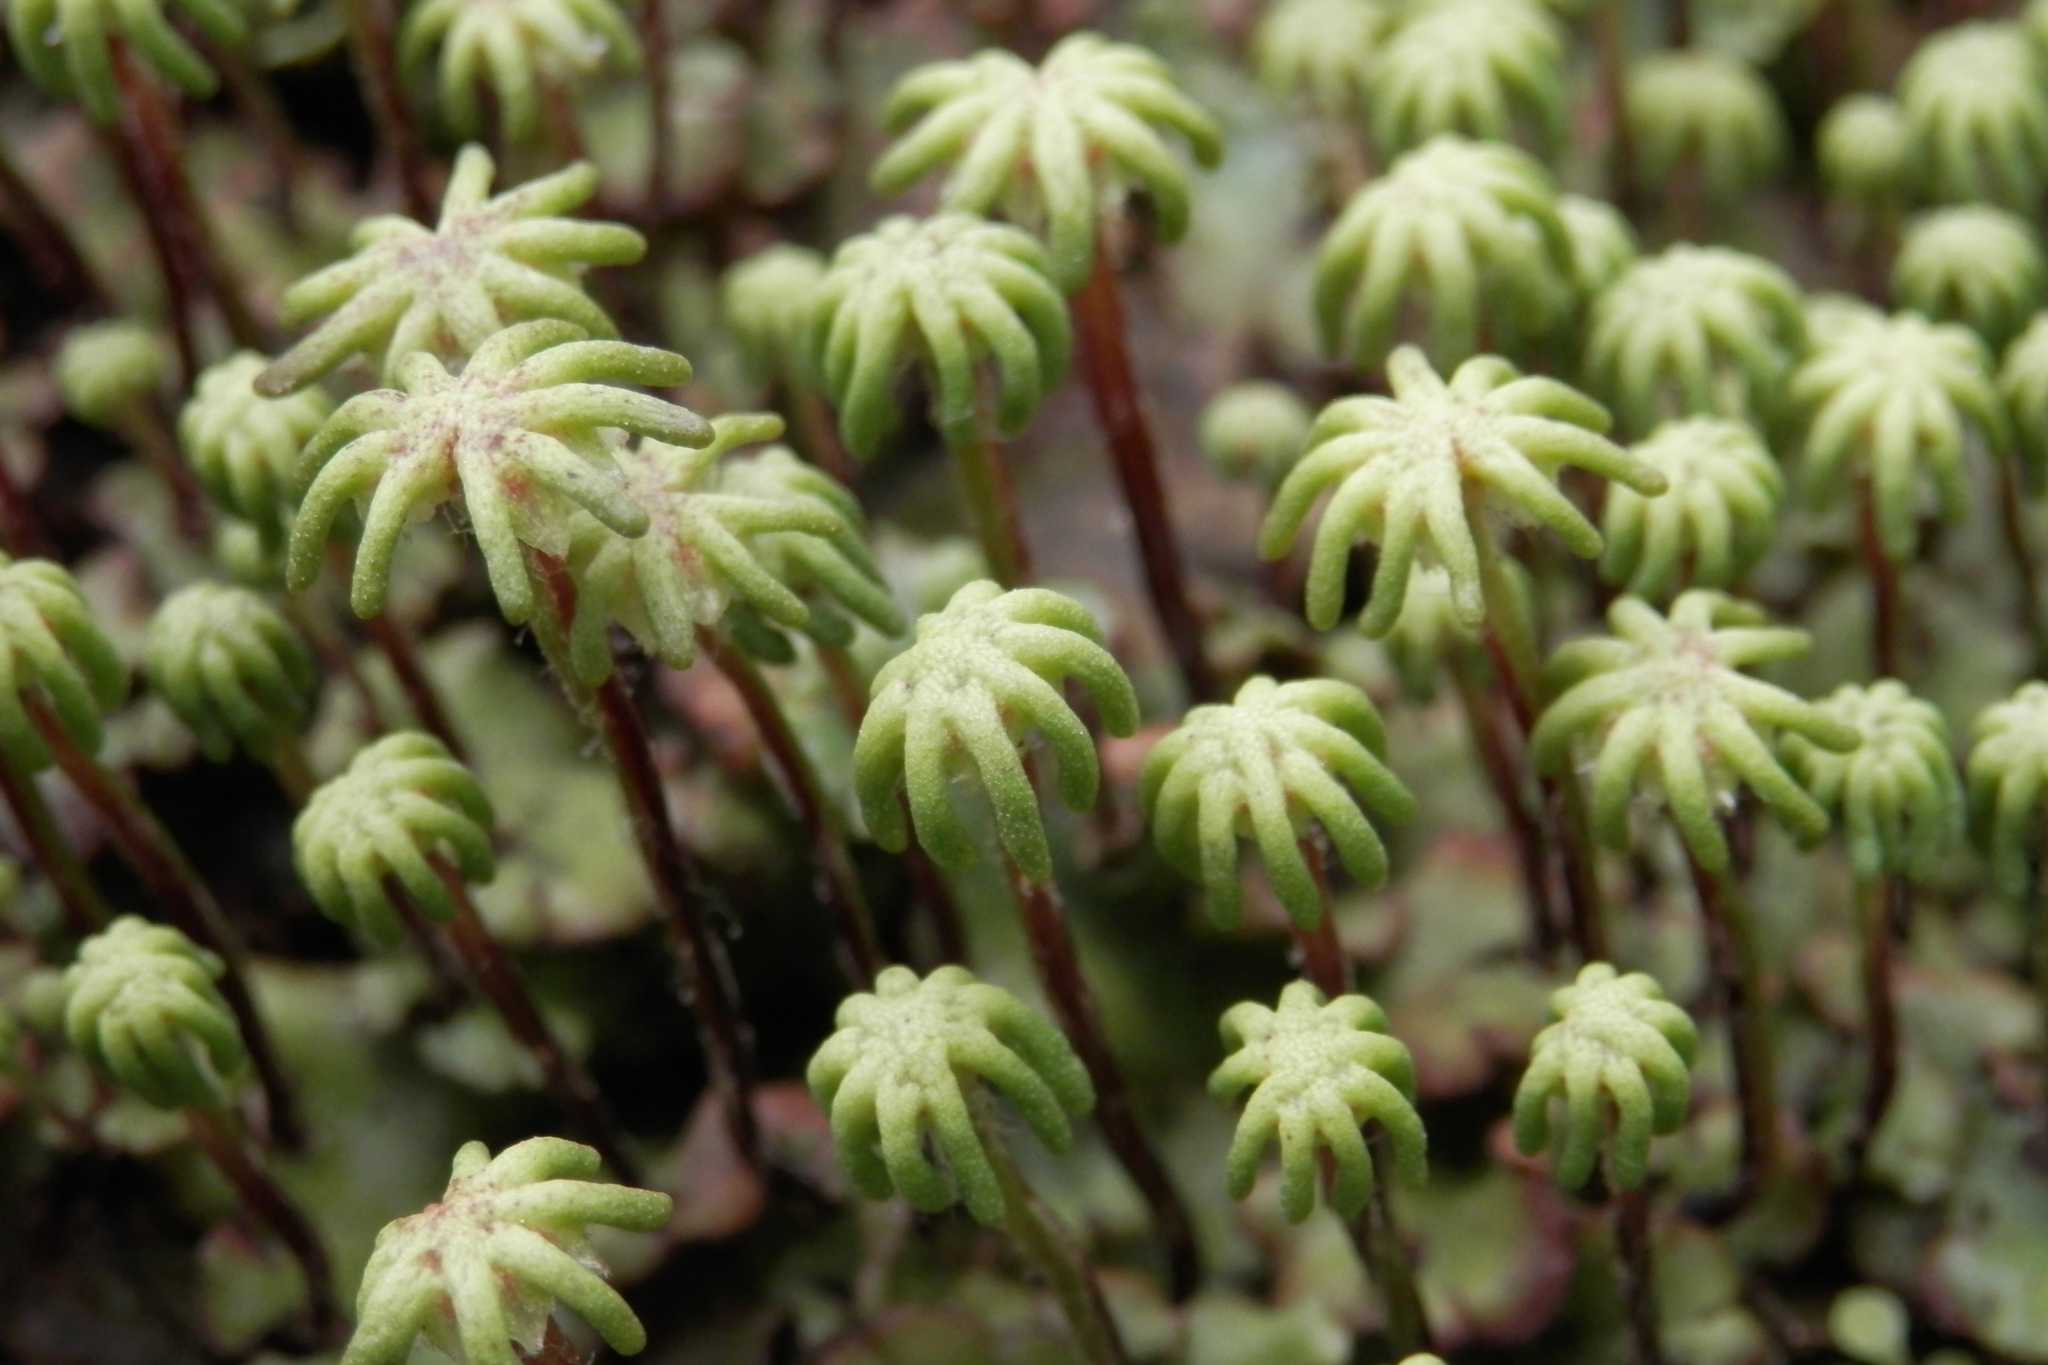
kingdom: Plantae
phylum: Marchantiophyta
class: Marchantiopsida
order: Marchantiales
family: Marchantiaceae
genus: Marchantia
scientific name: Marchantia polymorpha
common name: Common liverwort
